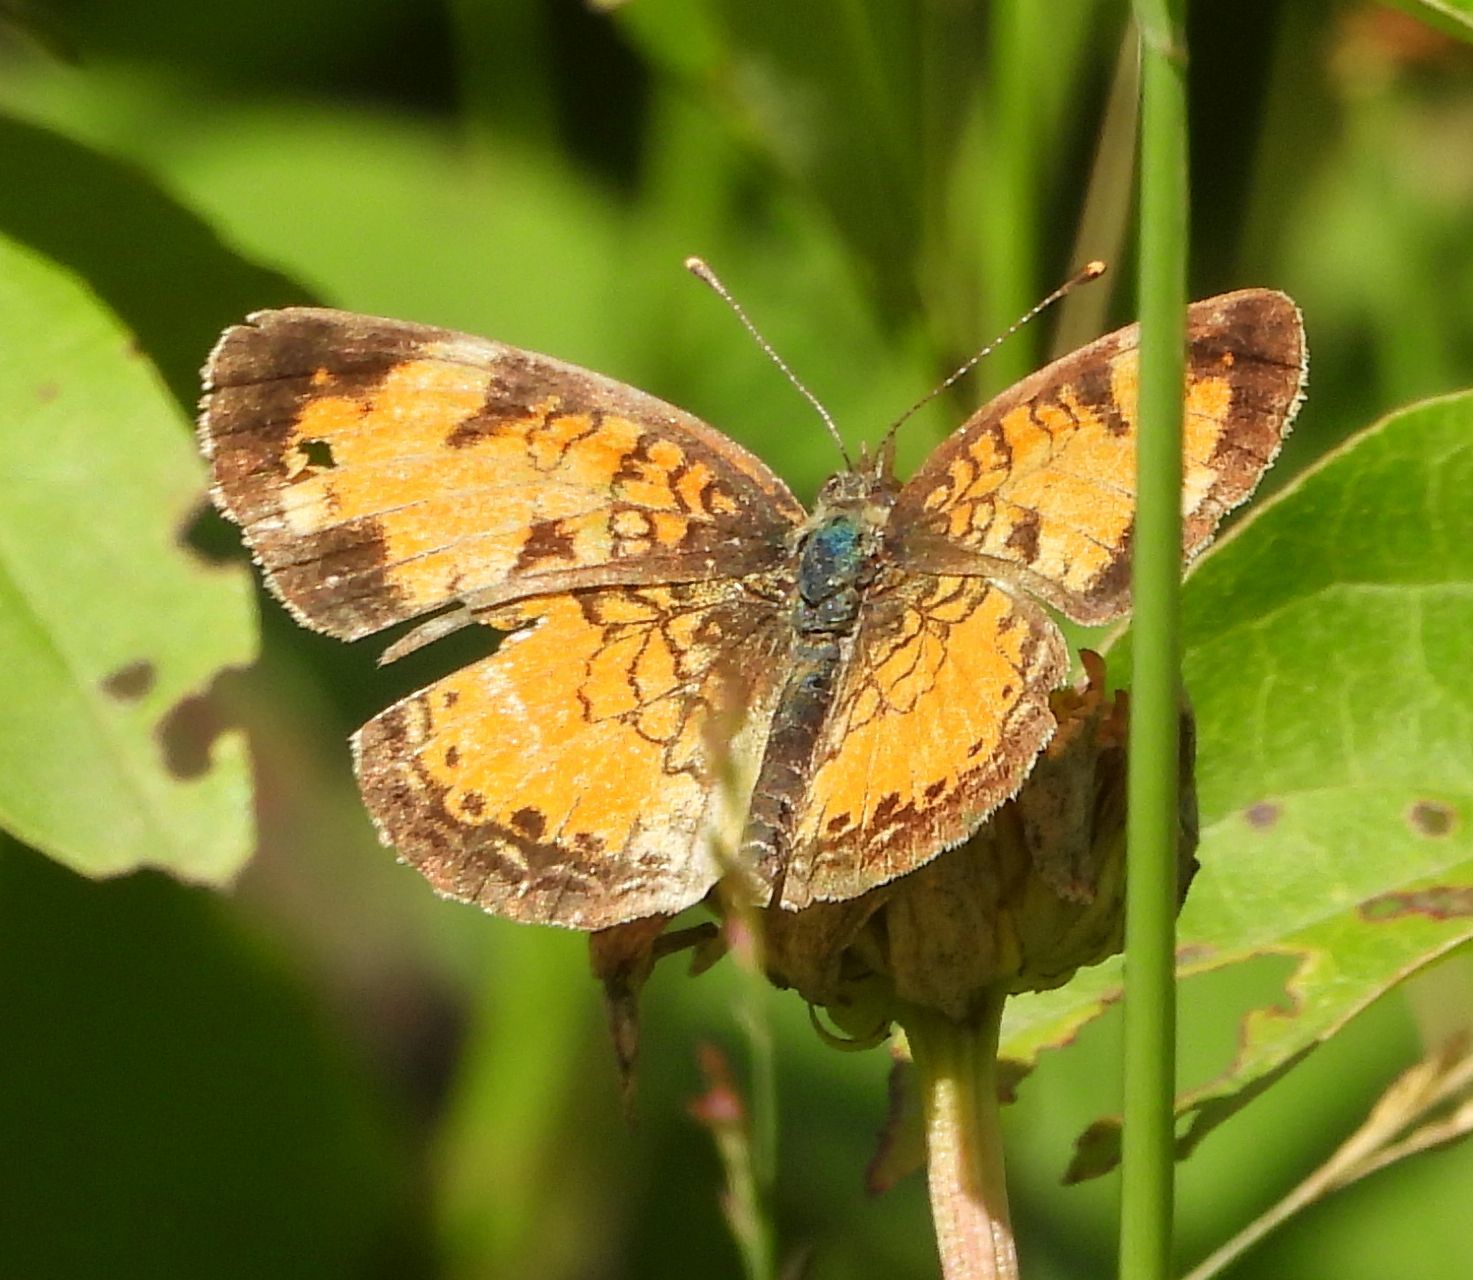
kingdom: Animalia
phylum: Arthropoda
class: Insecta
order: Lepidoptera
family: Nymphalidae
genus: Phyciodes
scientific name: Phyciodes tharos
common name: Pearl crescent
